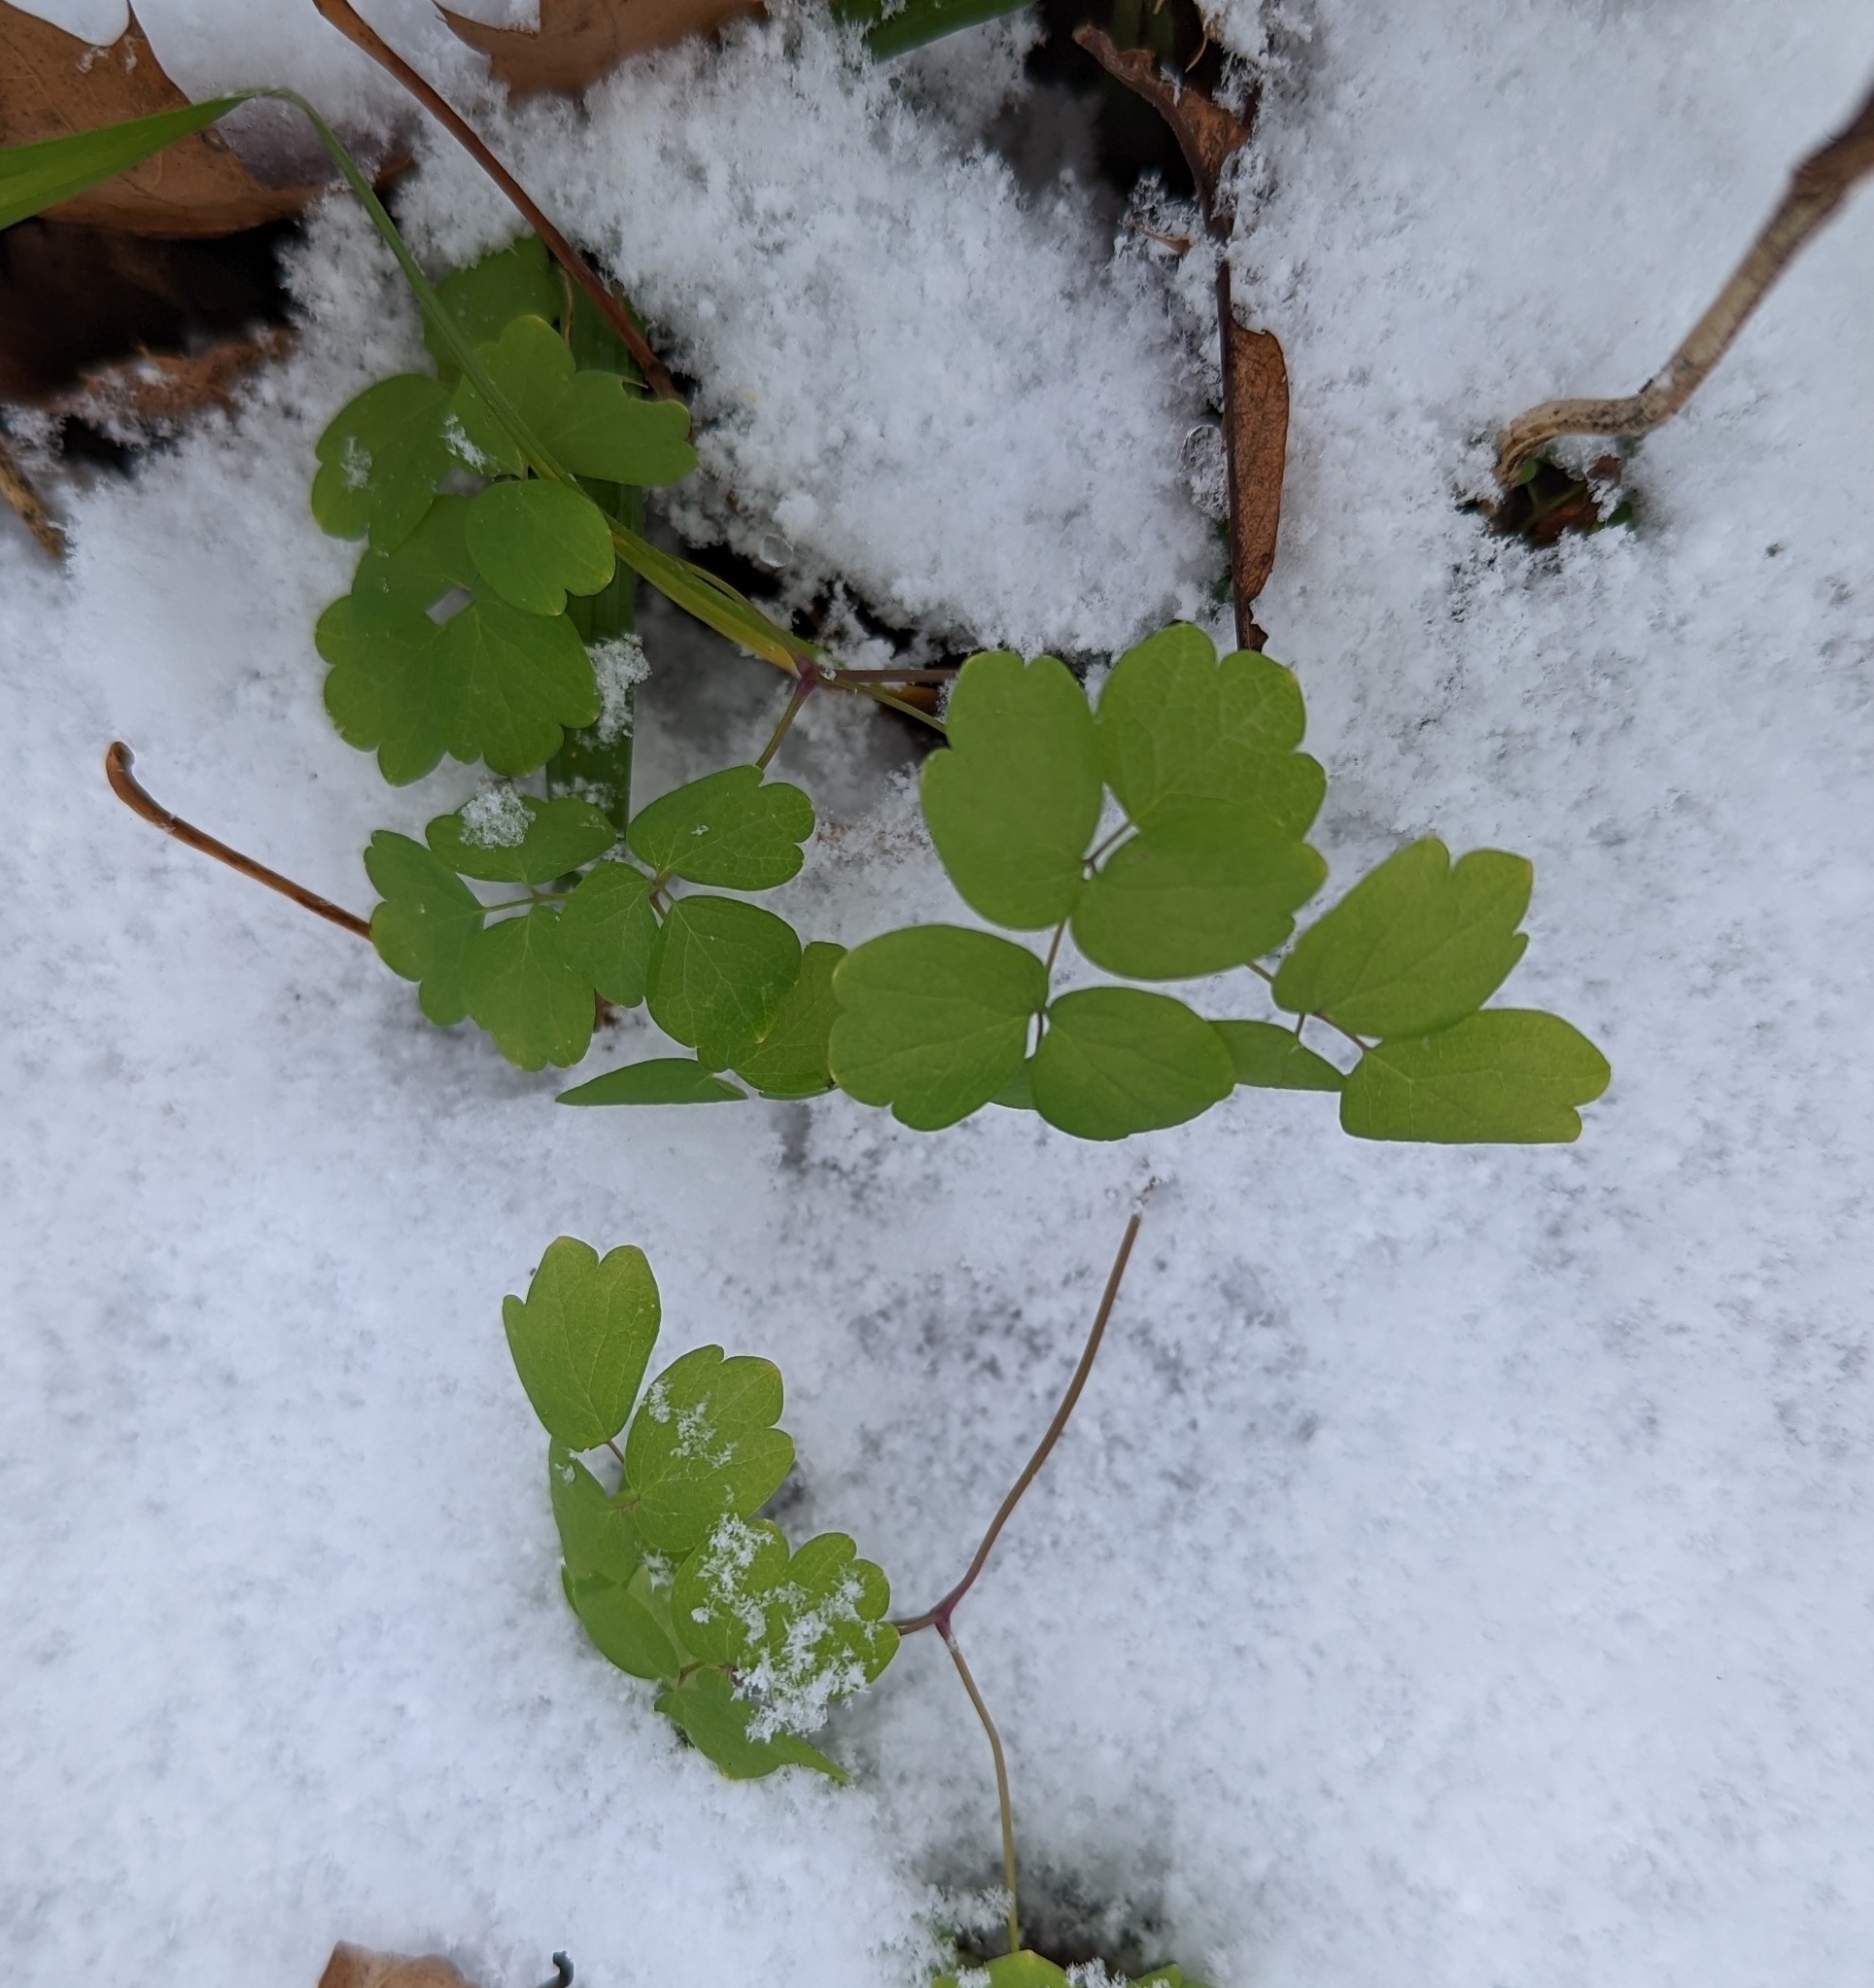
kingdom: Plantae
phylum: Tracheophyta
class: Magnoliopsida
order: Ranunculales
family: Ranunculaceae
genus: Thalictrum
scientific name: Thalictrum dioicum
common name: Early meadow-rue
